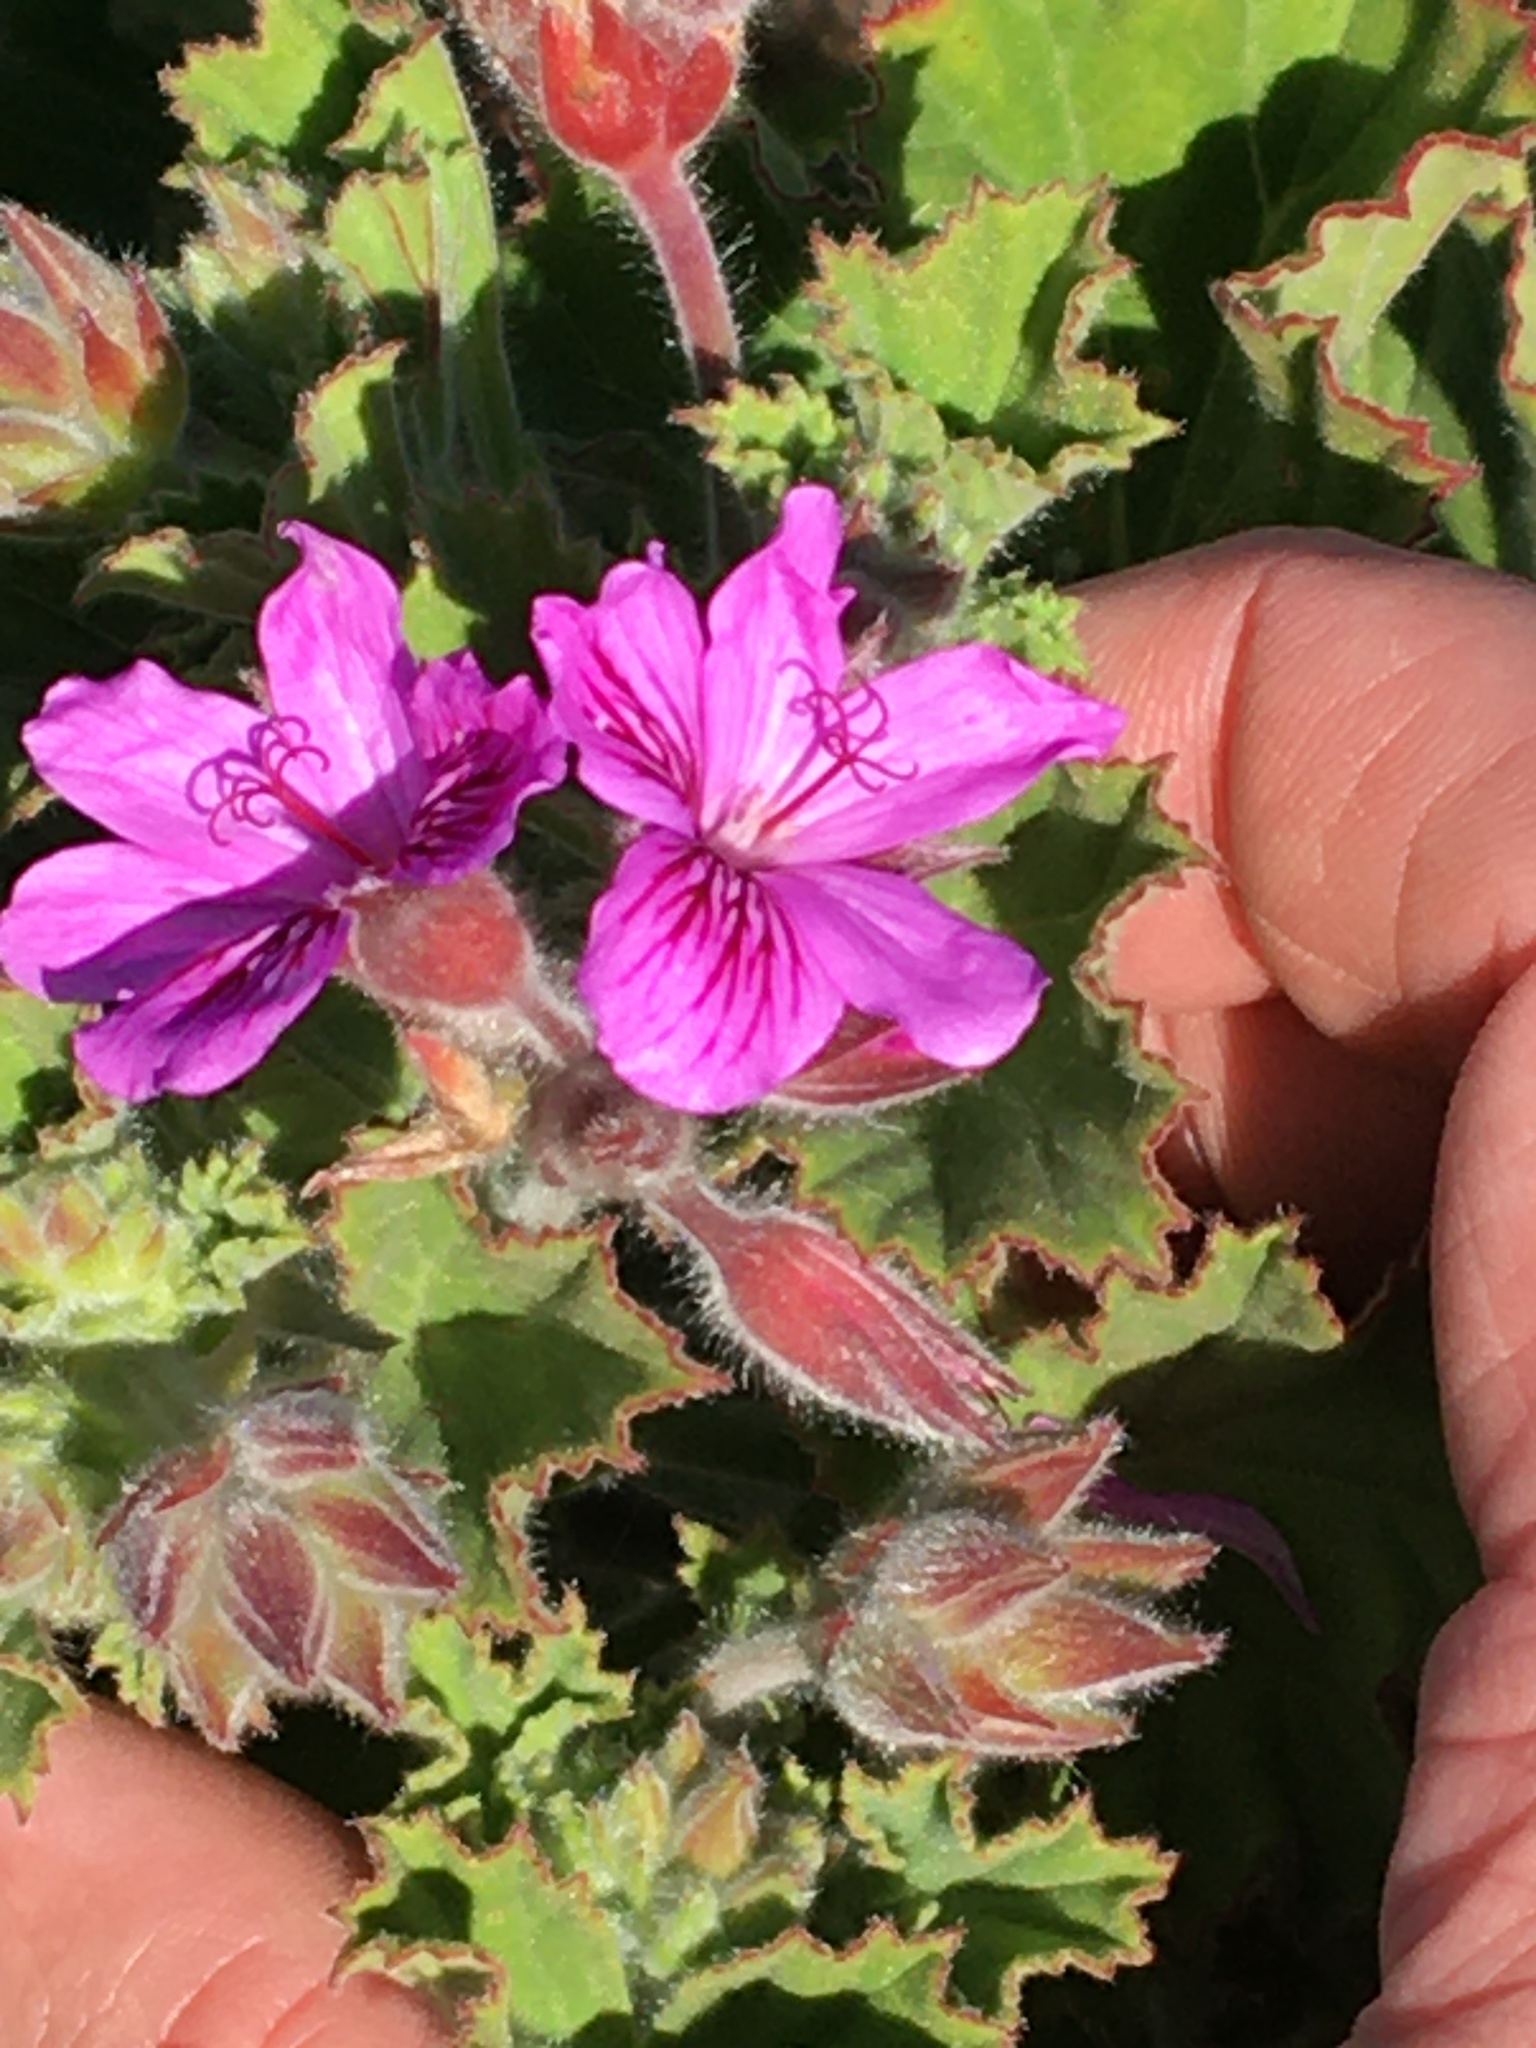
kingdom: Plantae
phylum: Tracheophyta
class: Magnoliopsida
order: Geraniales
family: Geraniaceae
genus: Pelargonium
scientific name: Pelargonium cucullatum
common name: Tree pelargonium
